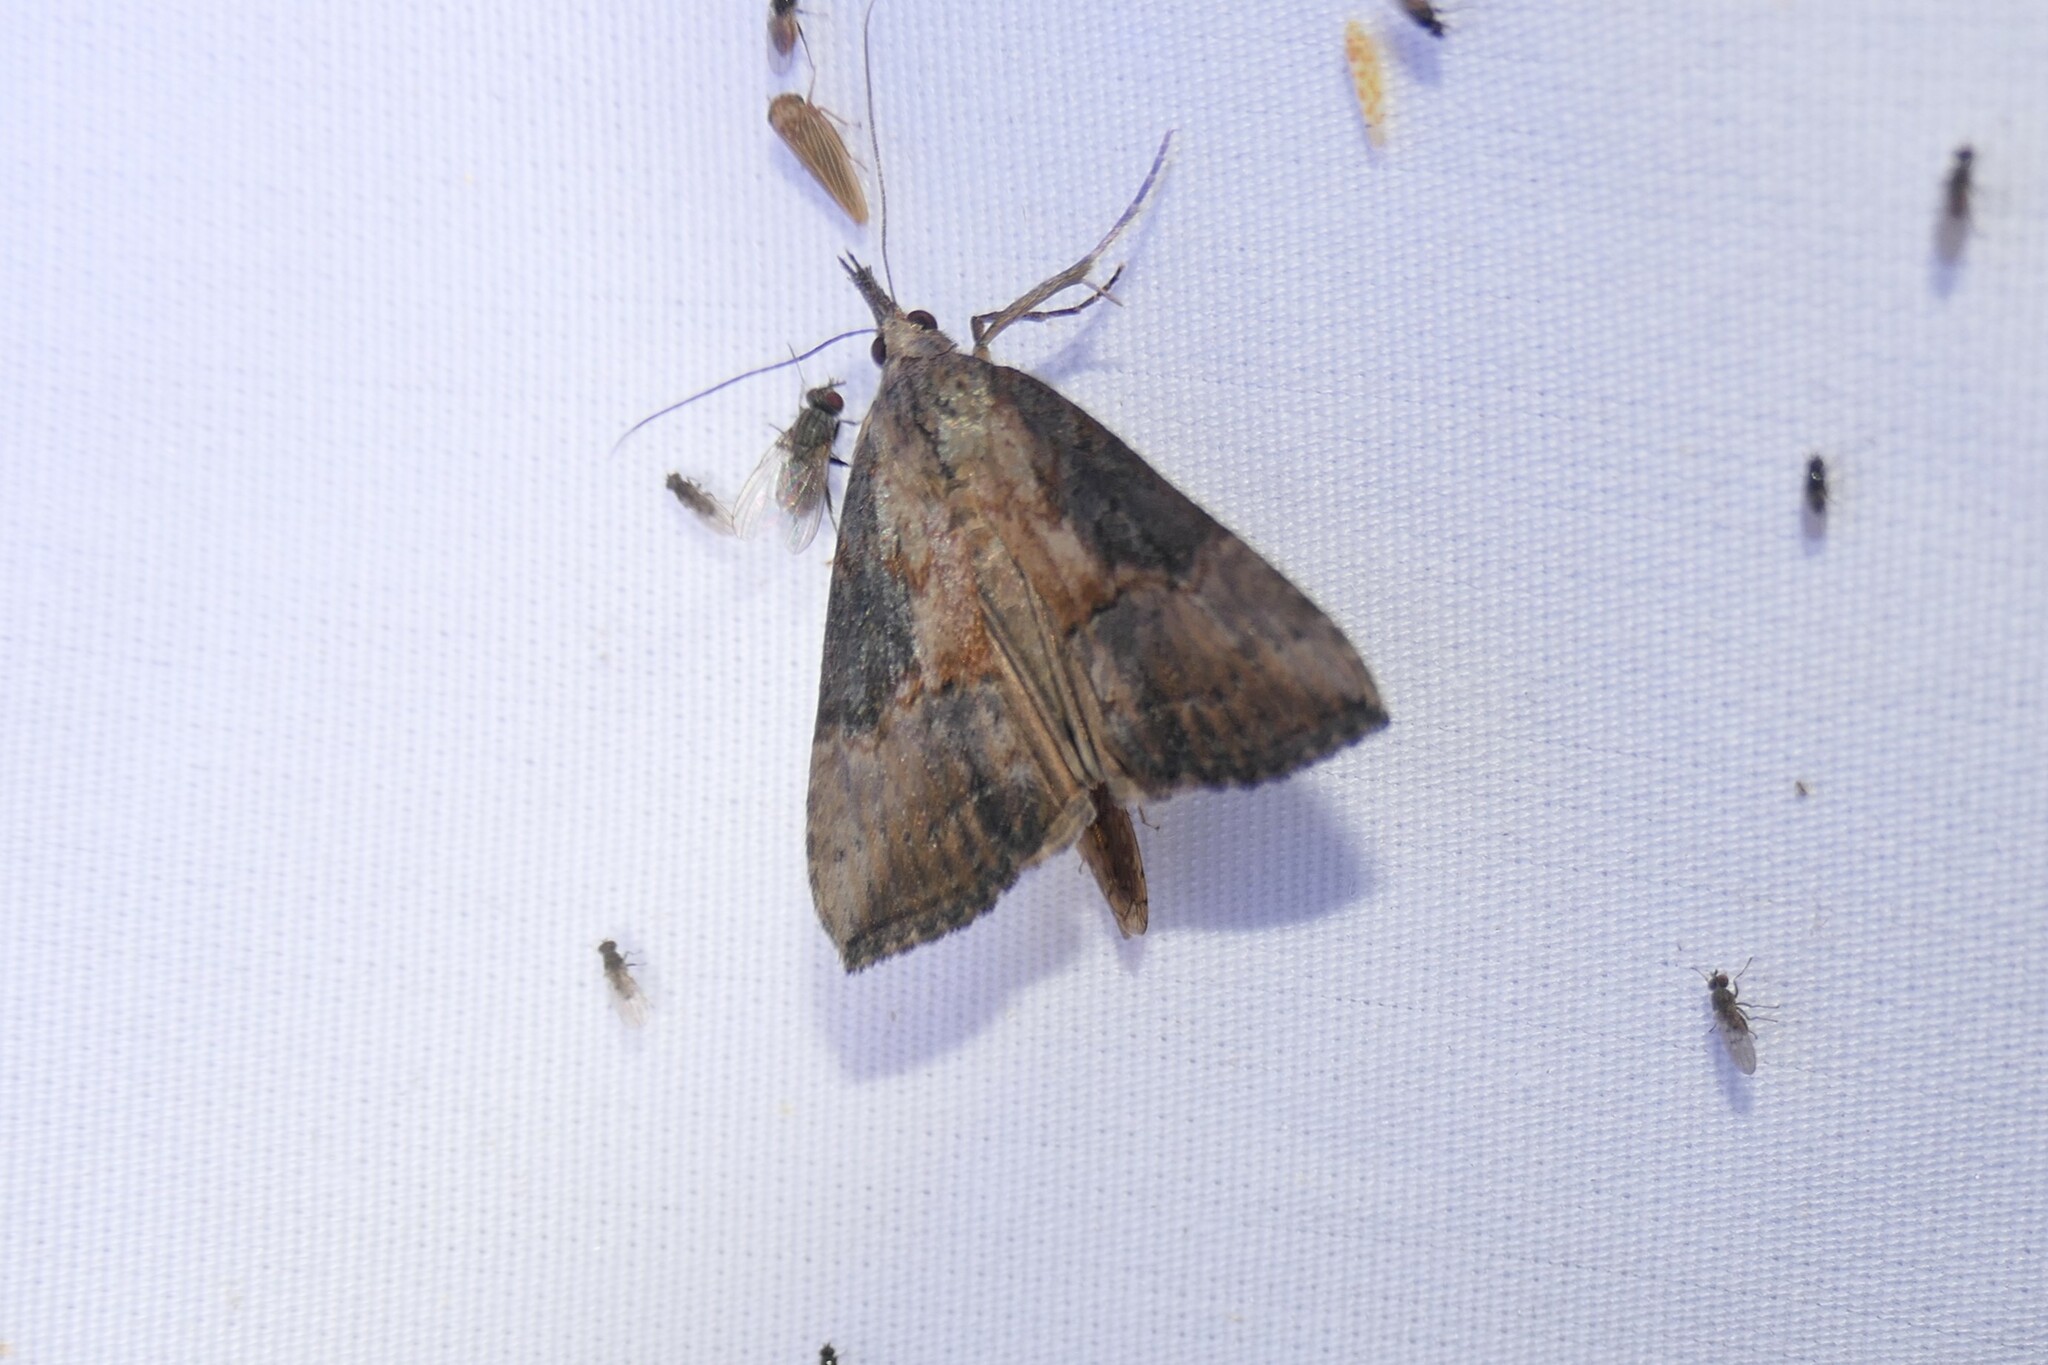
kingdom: Animalia
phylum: Arthropoda
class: Insecta
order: Lepidoptera
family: Erebidae
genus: Hypena
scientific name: Hypena scabra
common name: Green cloverworm
